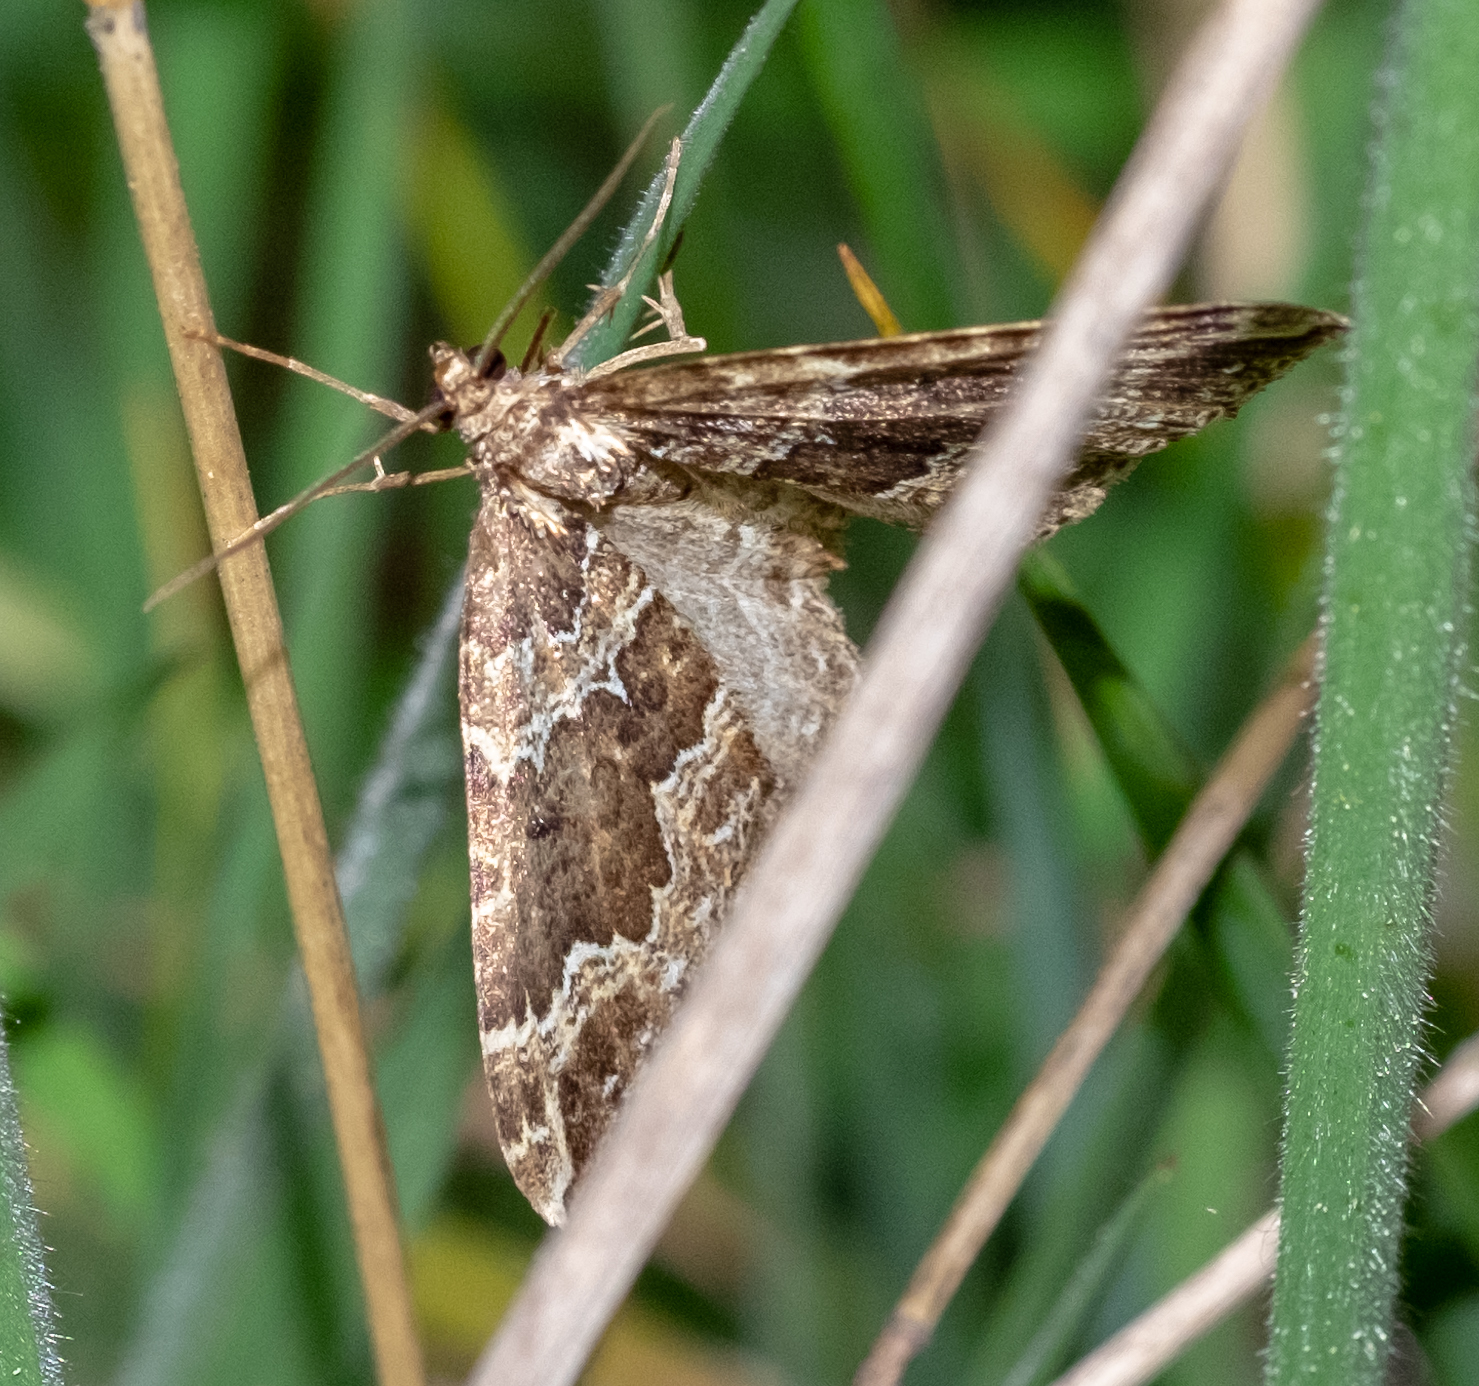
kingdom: Animalia
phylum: Arthropoda
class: Insecta
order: Lepidoptera
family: Geometridae
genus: Lampropteryx
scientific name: Lampropteryx suffumata
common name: Water carpet
